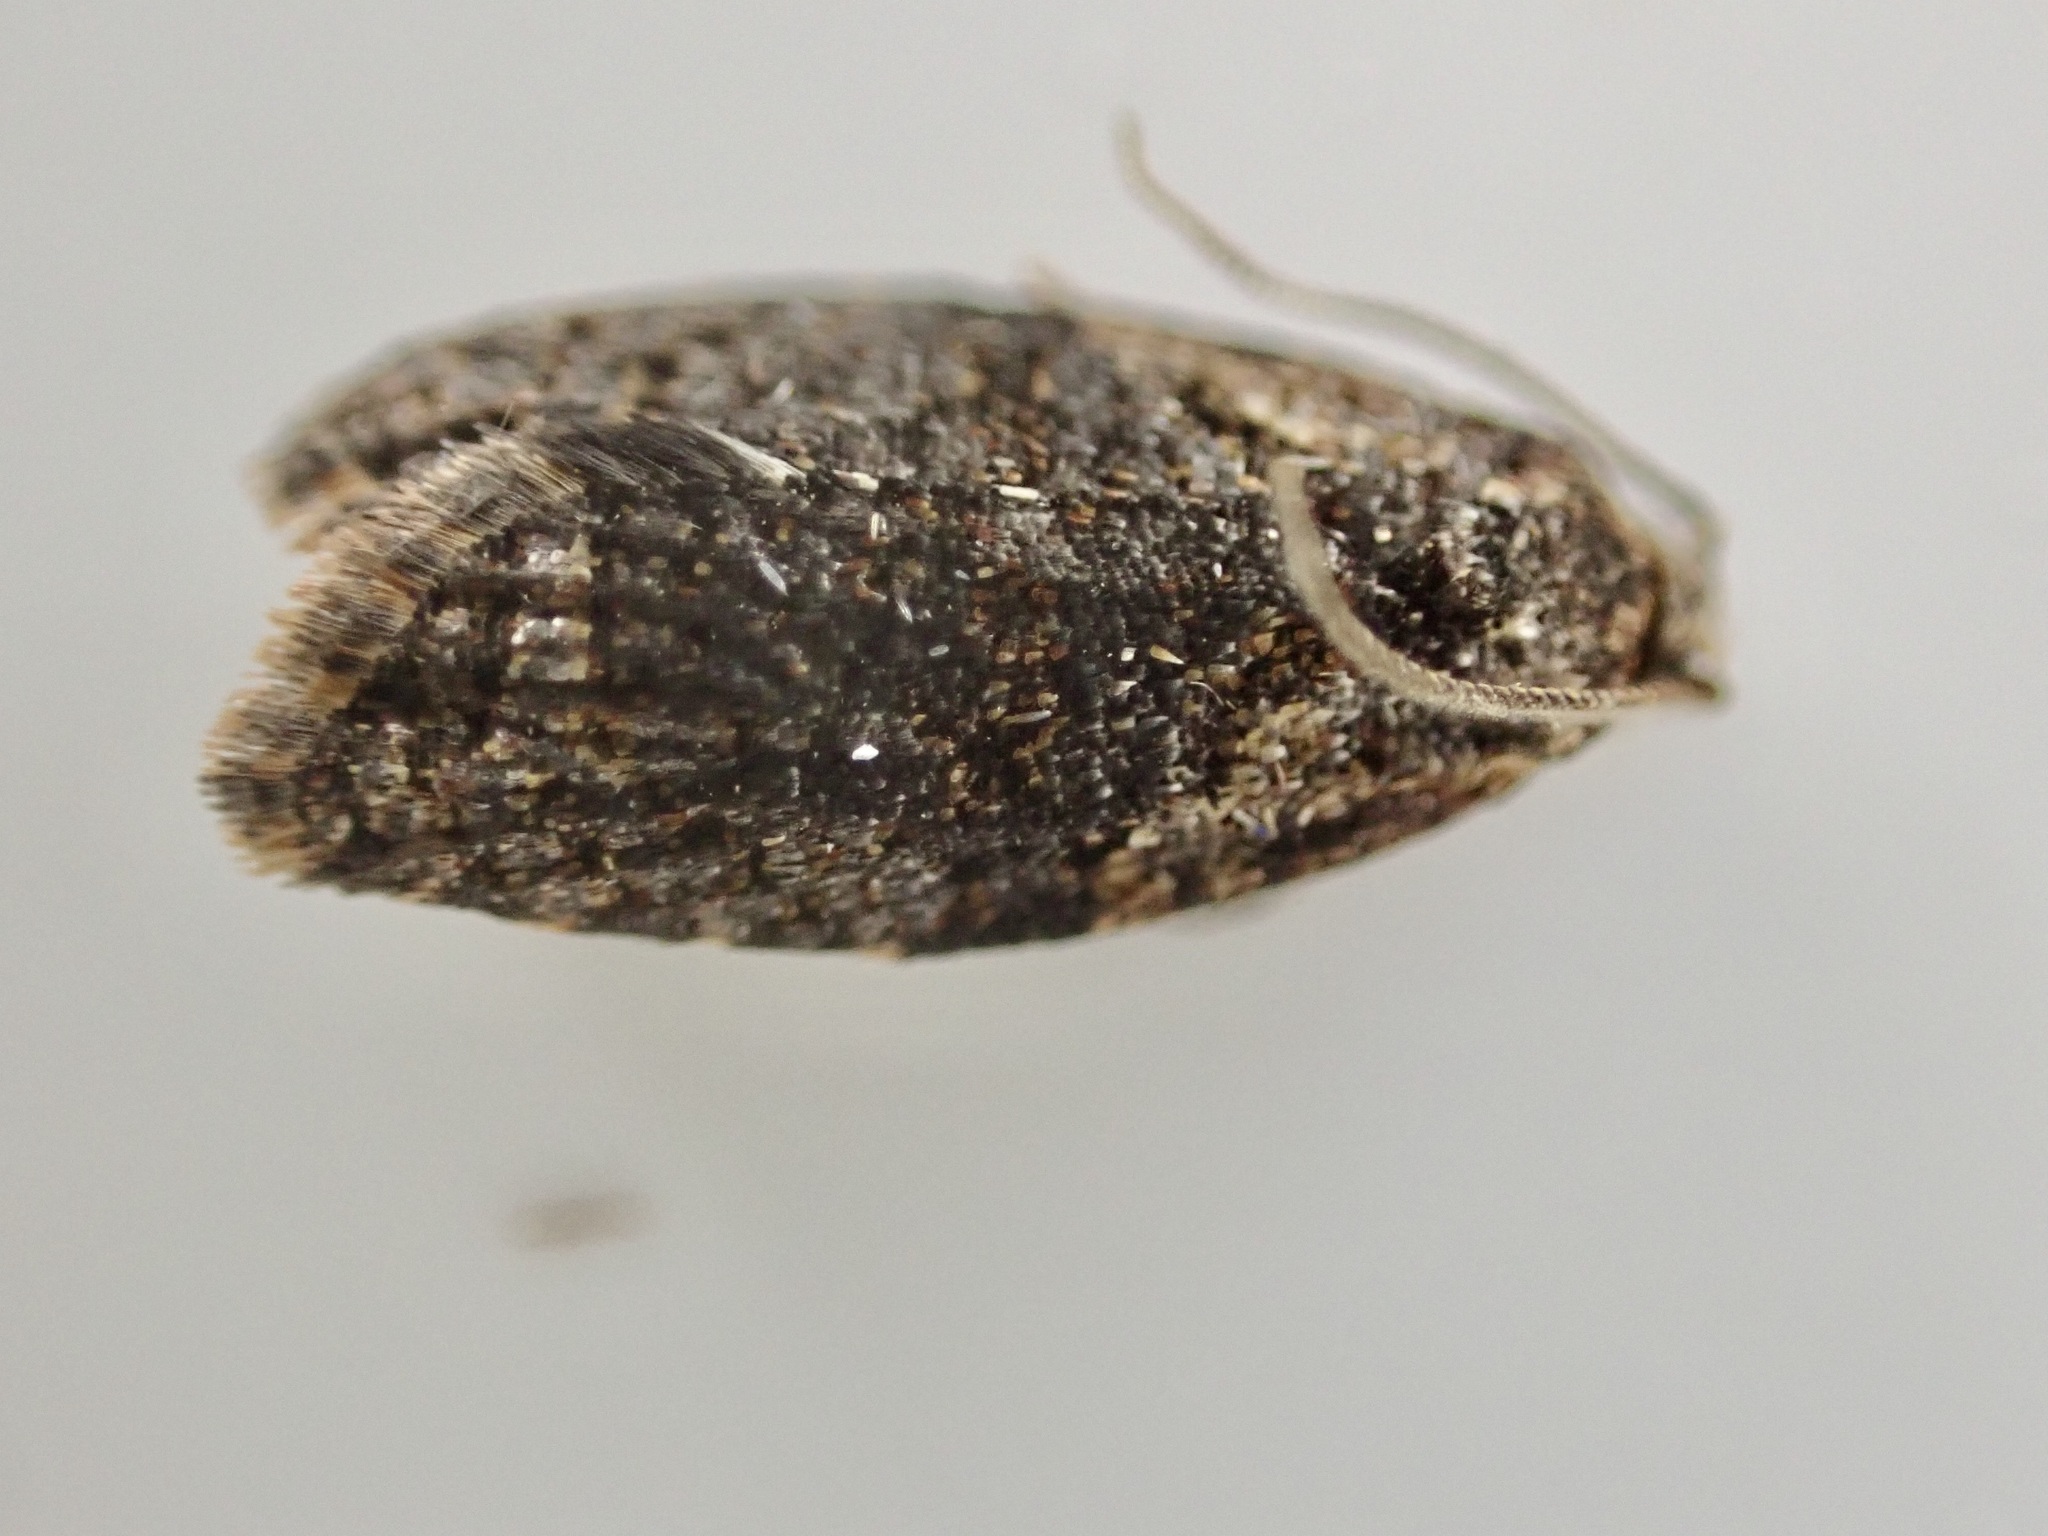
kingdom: Animalia
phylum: Arthropoda
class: Insecta
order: Lepidoptera
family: Tortricidae
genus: Capua
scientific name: Capua intractana
